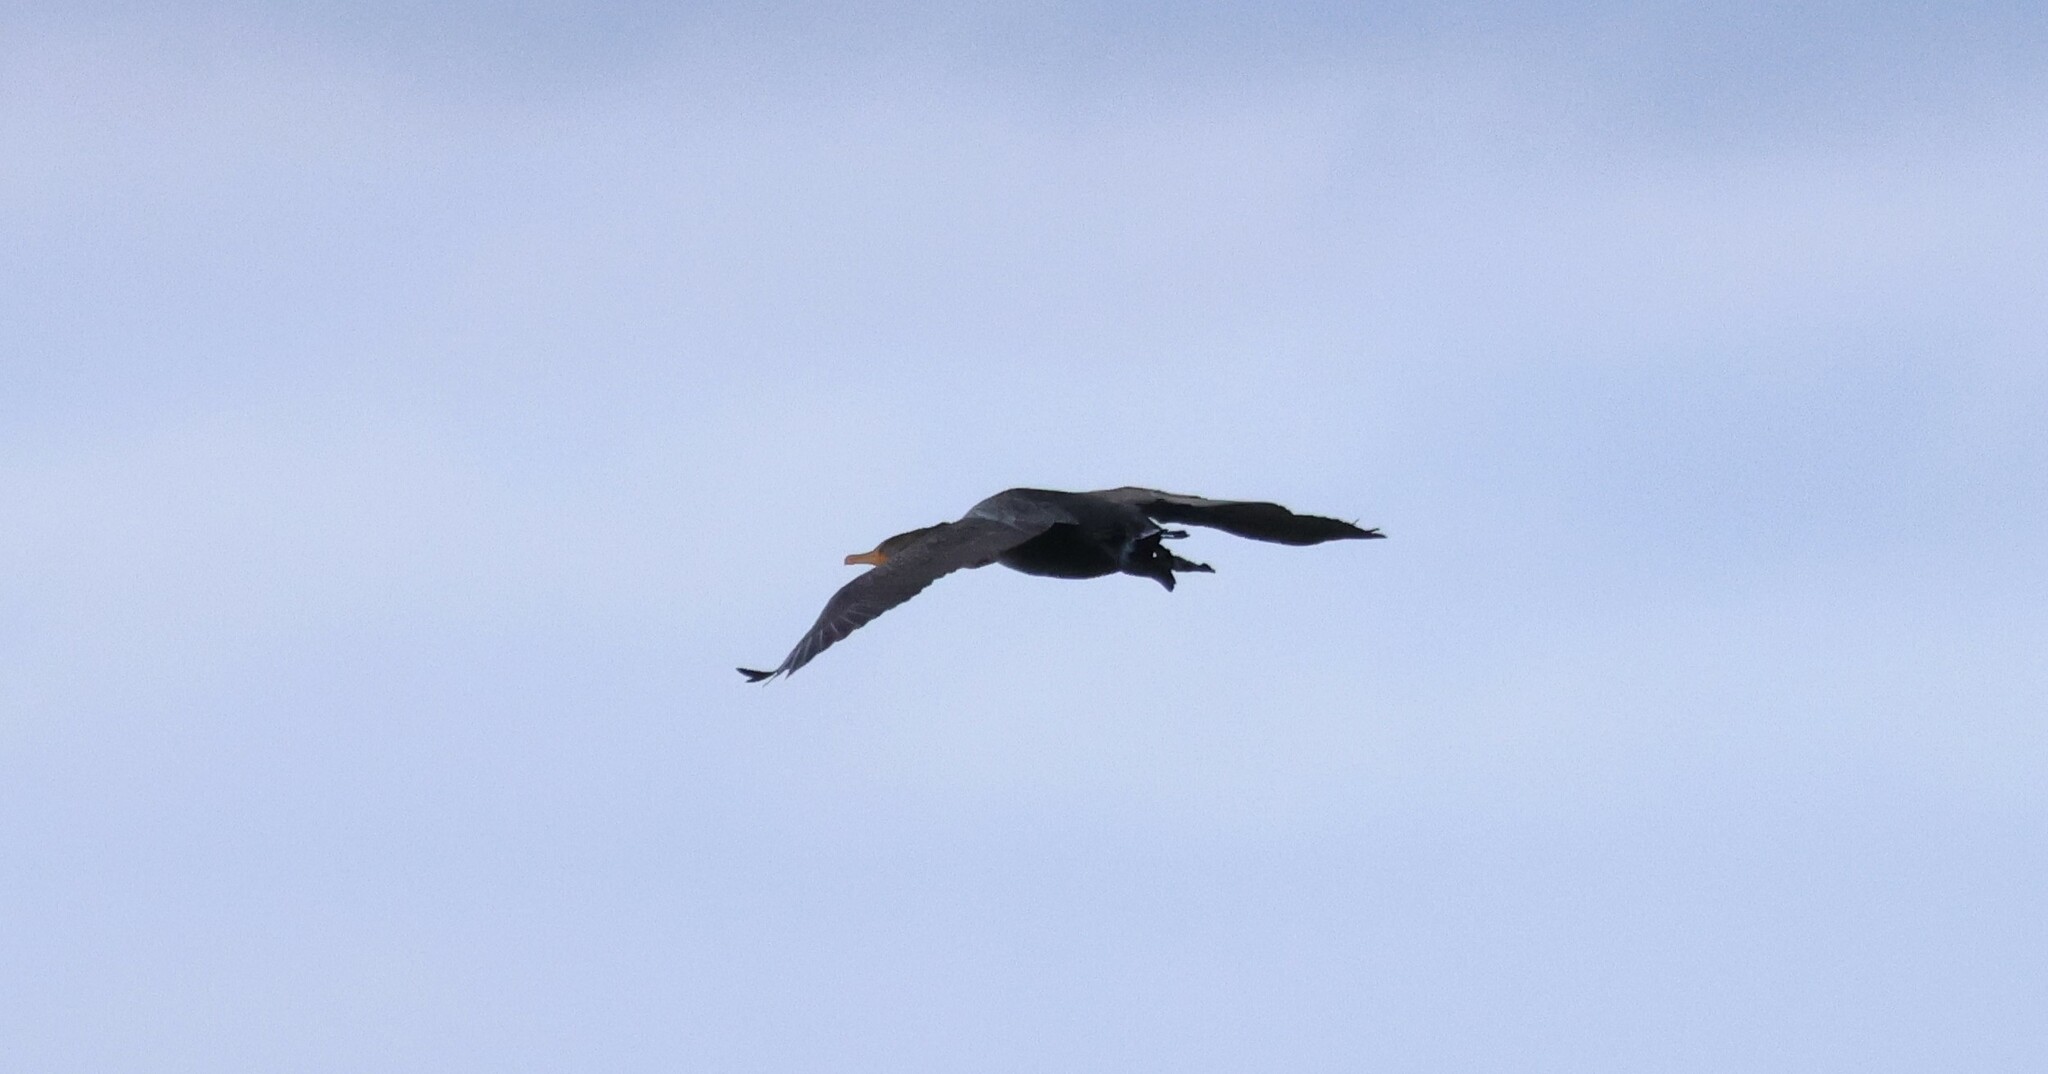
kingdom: Animalia
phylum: Chordata
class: Aves
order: Suliformes
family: Phalacrocoracidae
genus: Phalacrocorax
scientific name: Phalacrocorax auritus
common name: Double-crested cormorant
